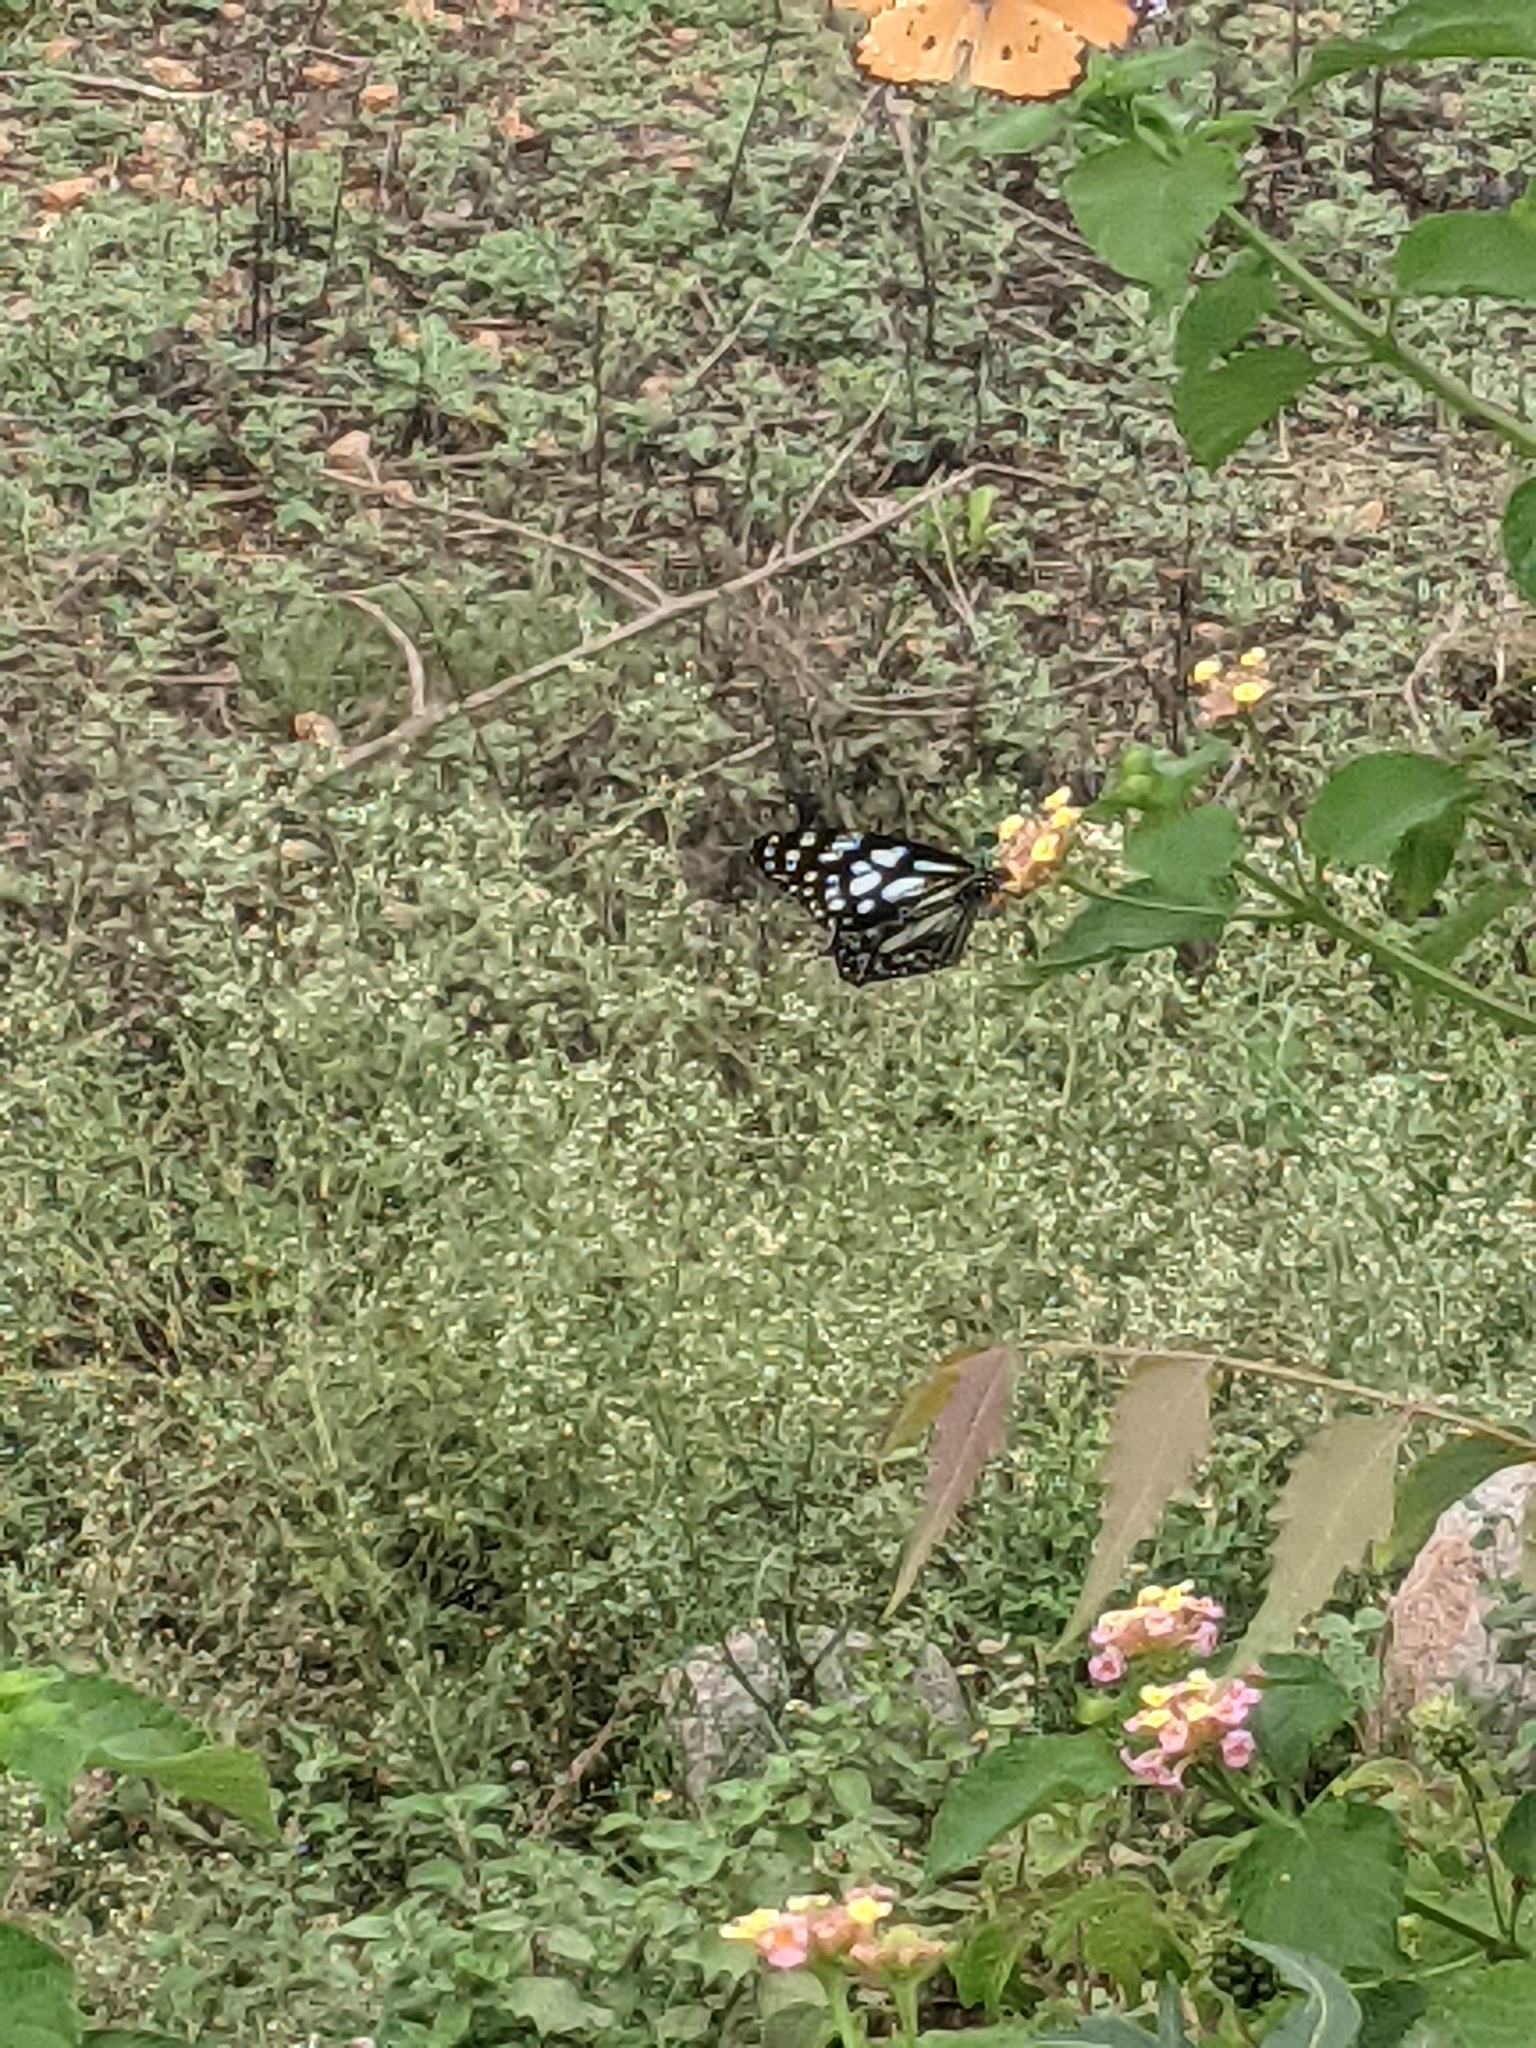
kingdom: Animalia
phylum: Arthropoda
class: Insecta
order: Lepidoptera
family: Nymphalidae
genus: Tirumala
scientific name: Tirumala limniace
